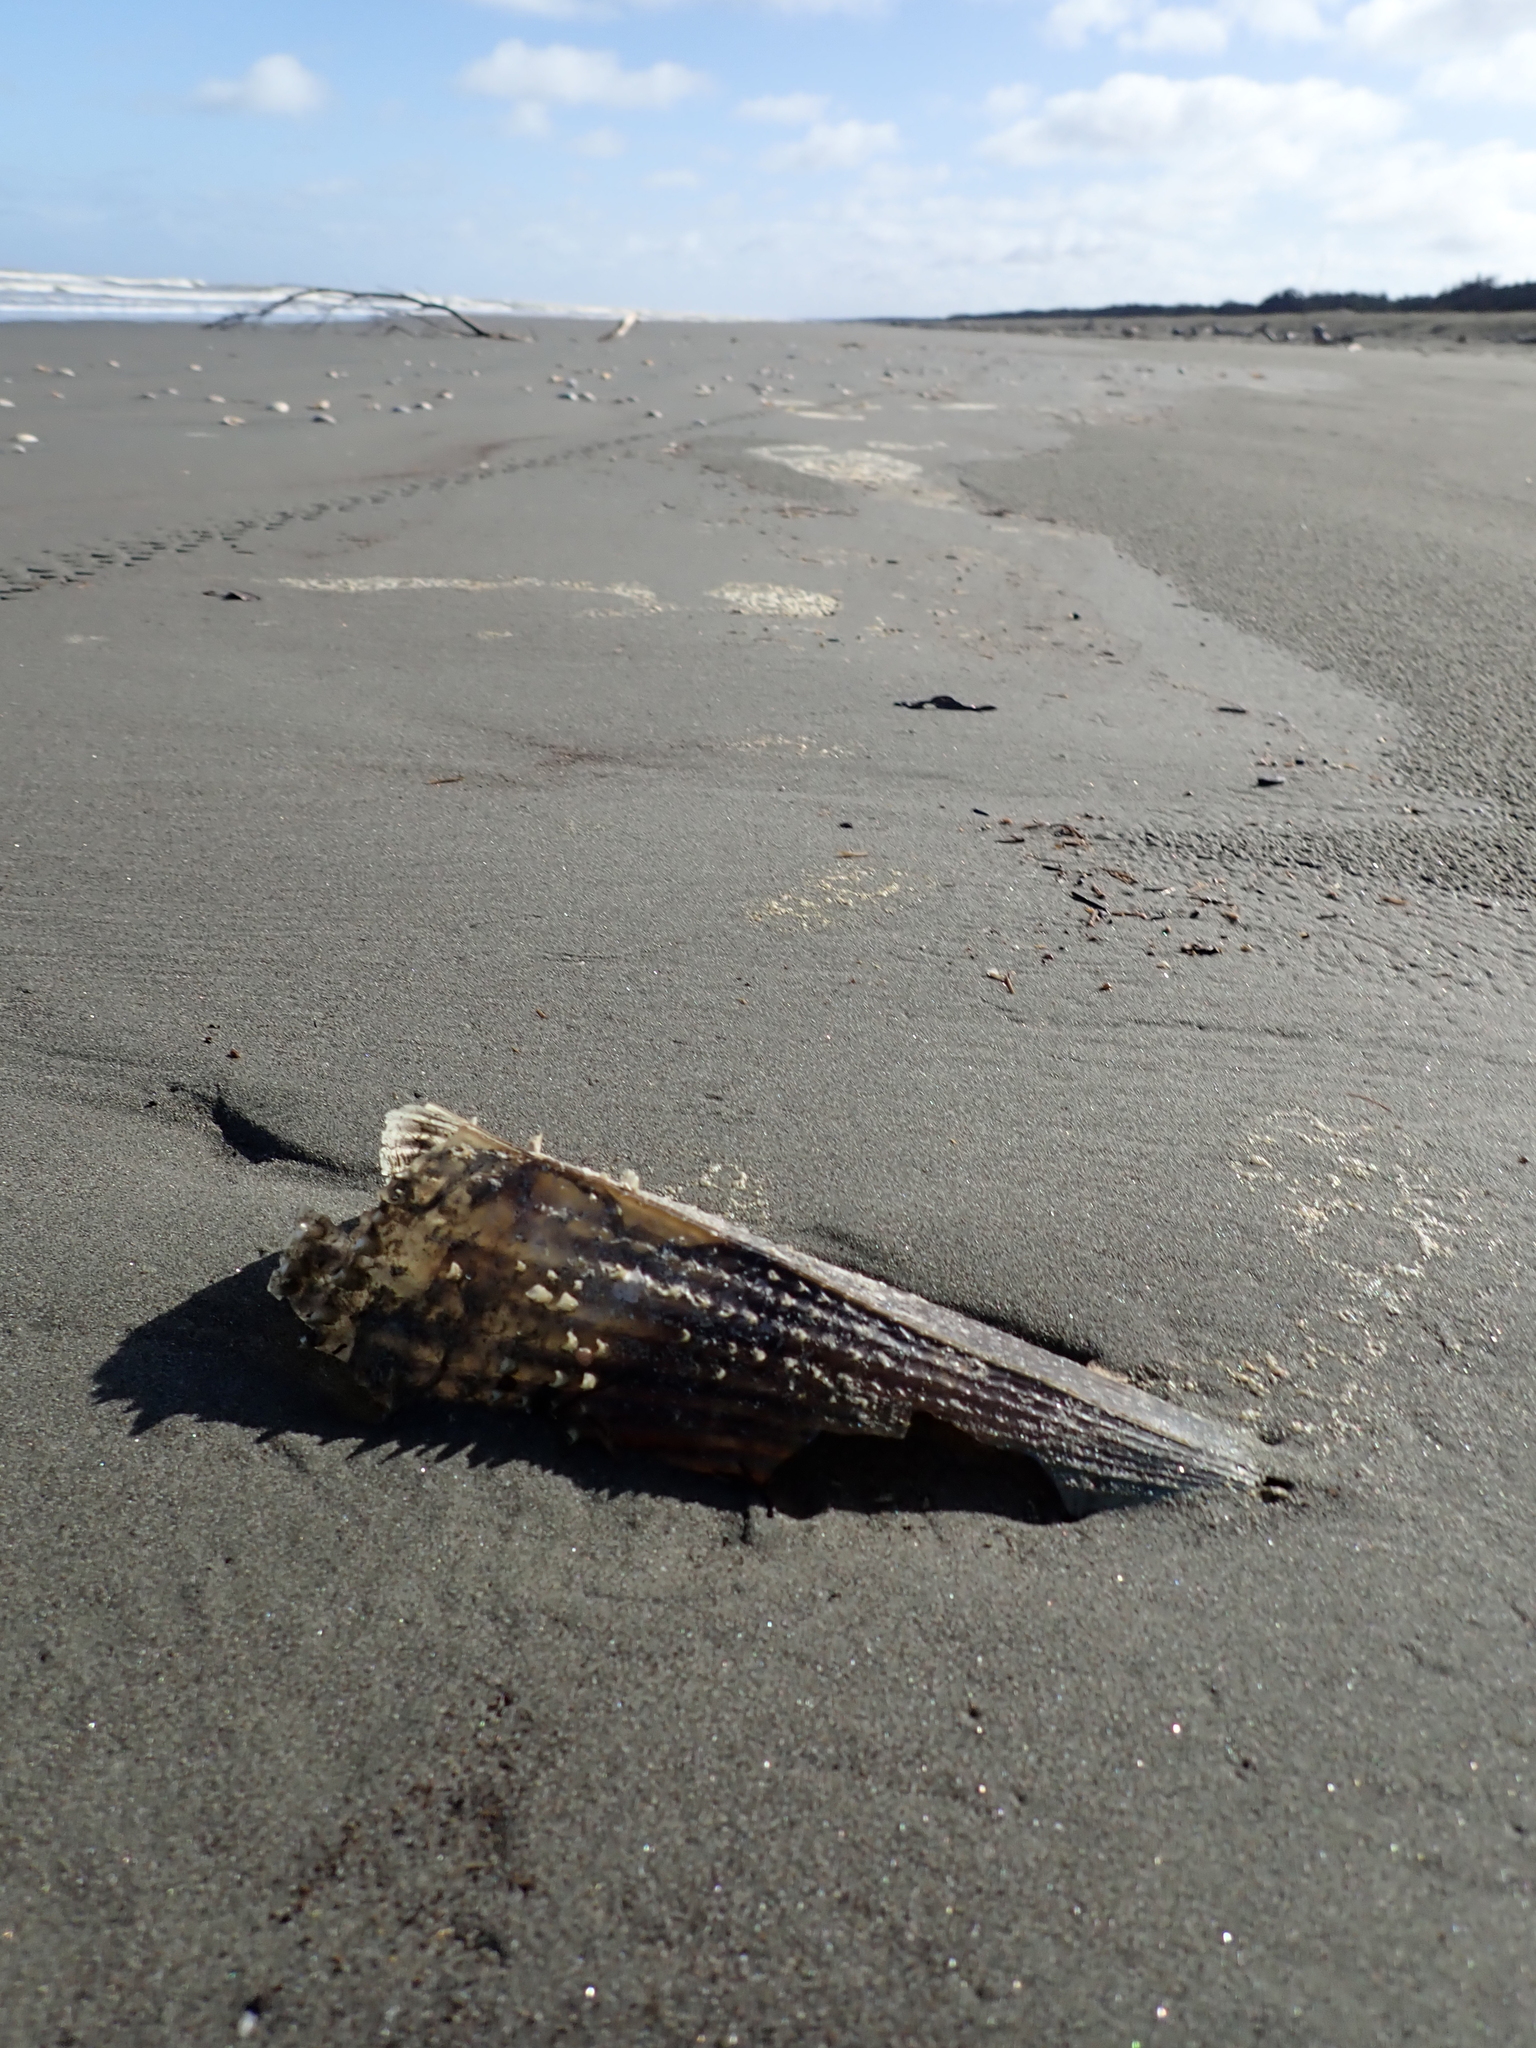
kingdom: Animalia
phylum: Mollusca
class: Bivalvia
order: Ostreida
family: Pinnidae
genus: Atrina
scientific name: Atrina zelandica
